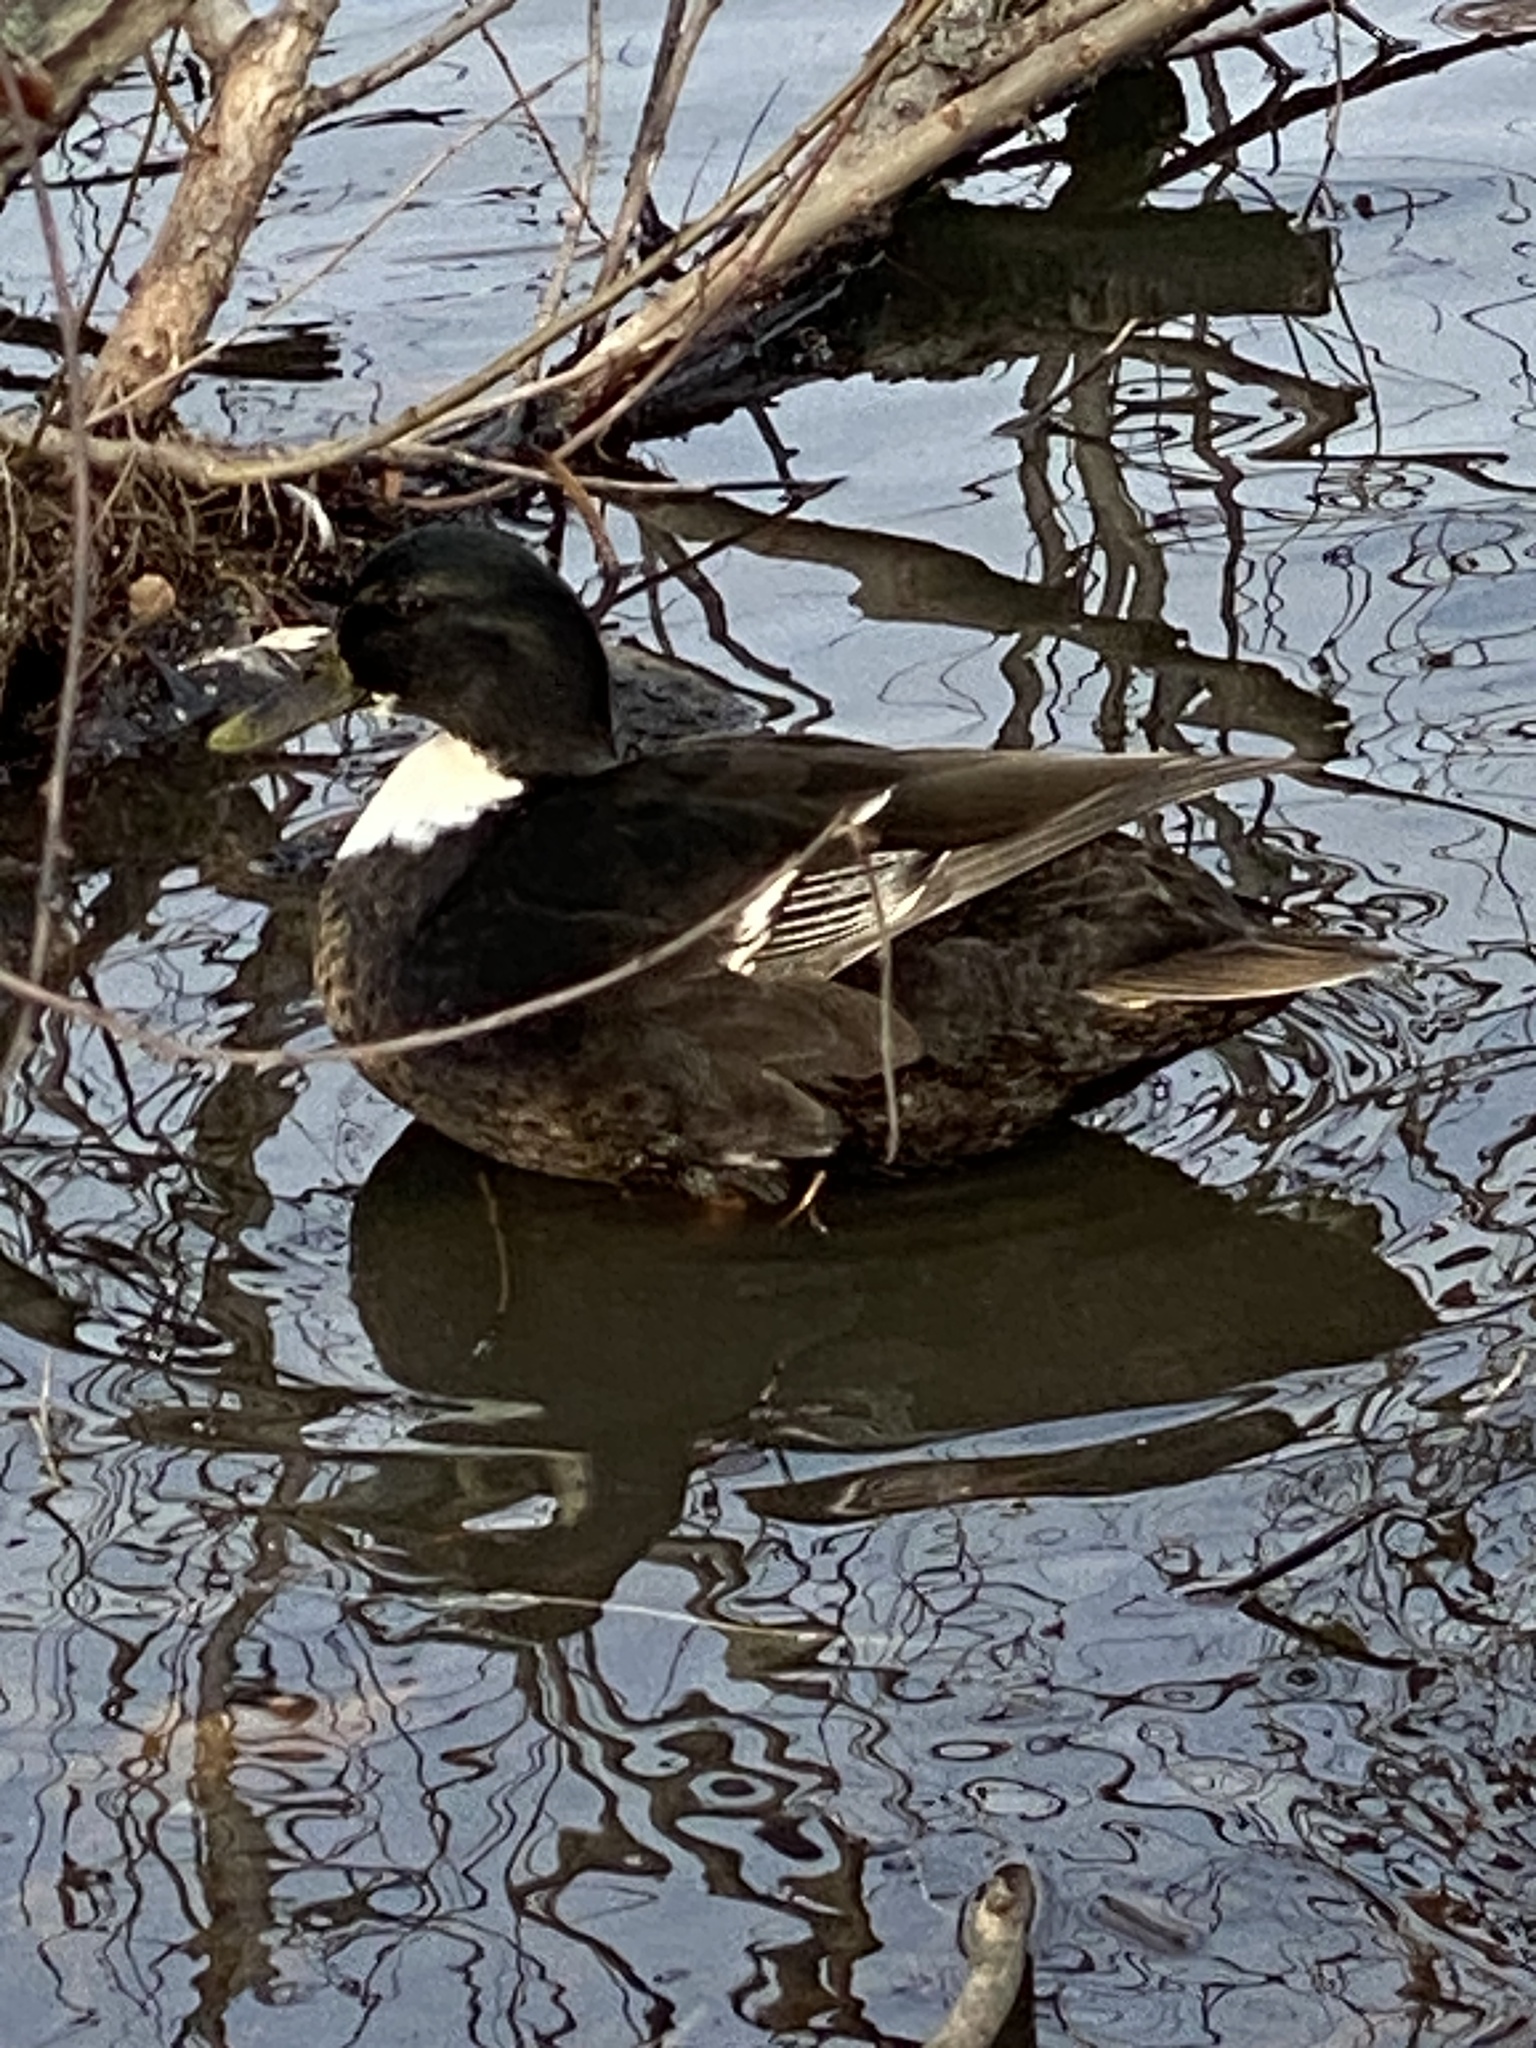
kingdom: Animalia
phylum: Chordata
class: Aves
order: Anseriformes
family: Anatidae
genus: Anas
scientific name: Anas platyrhynchos
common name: Mallard
